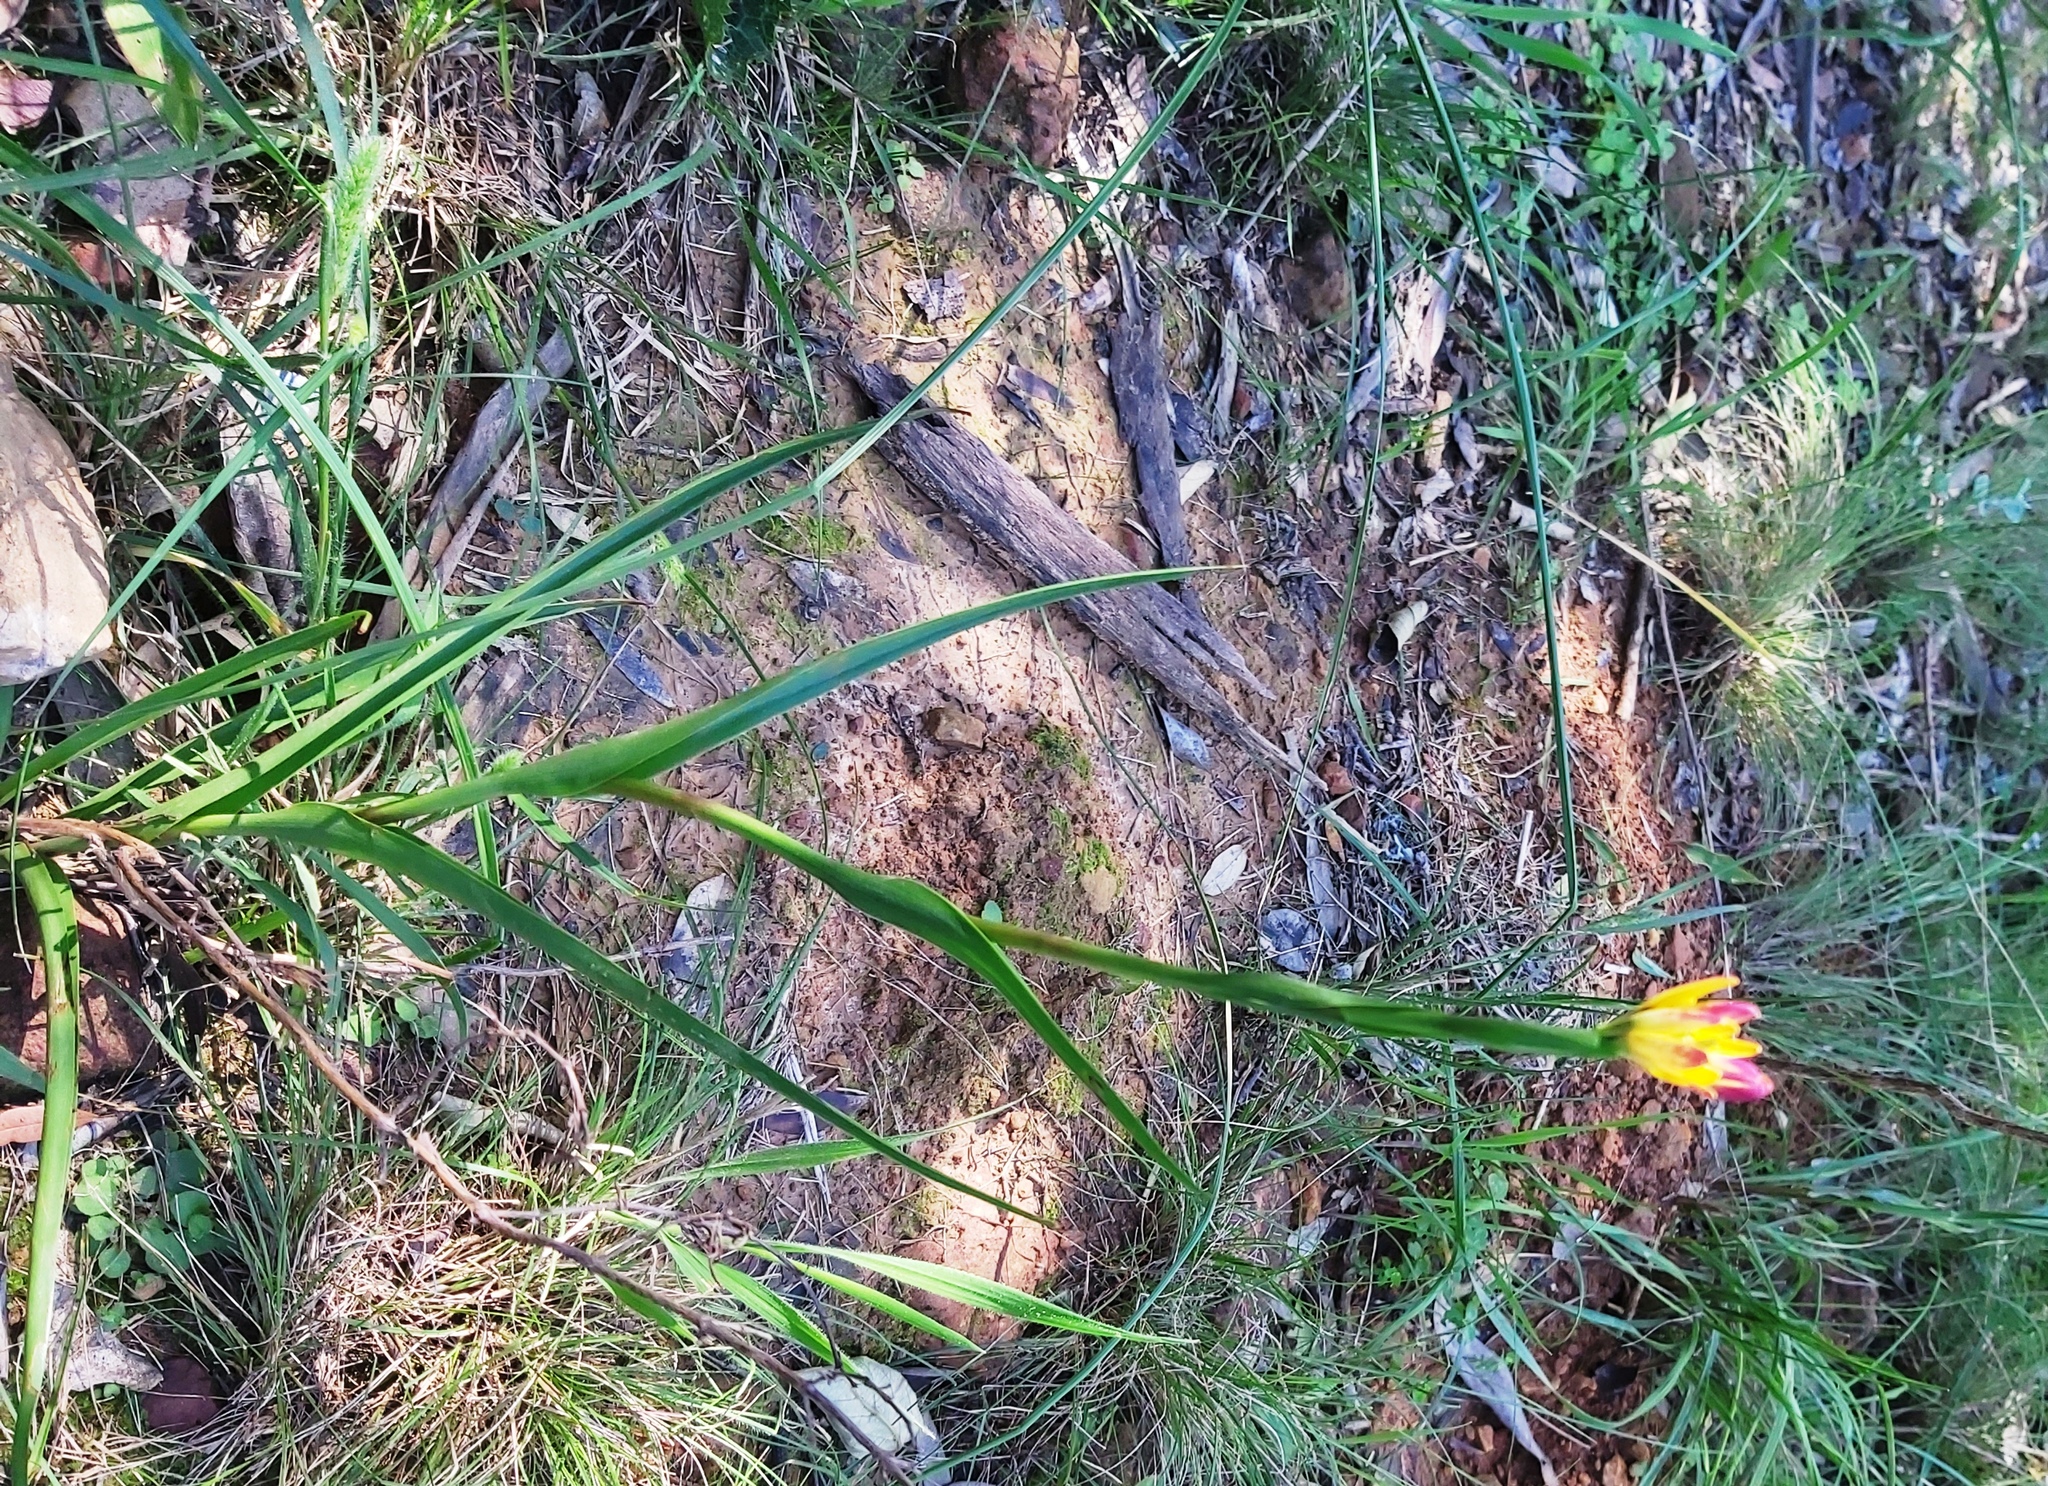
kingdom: Plantae
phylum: Tracheophyta
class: Liliopsida
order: Liliales
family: Colchicaceae
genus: Baeometra
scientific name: Baeometra uniflora
